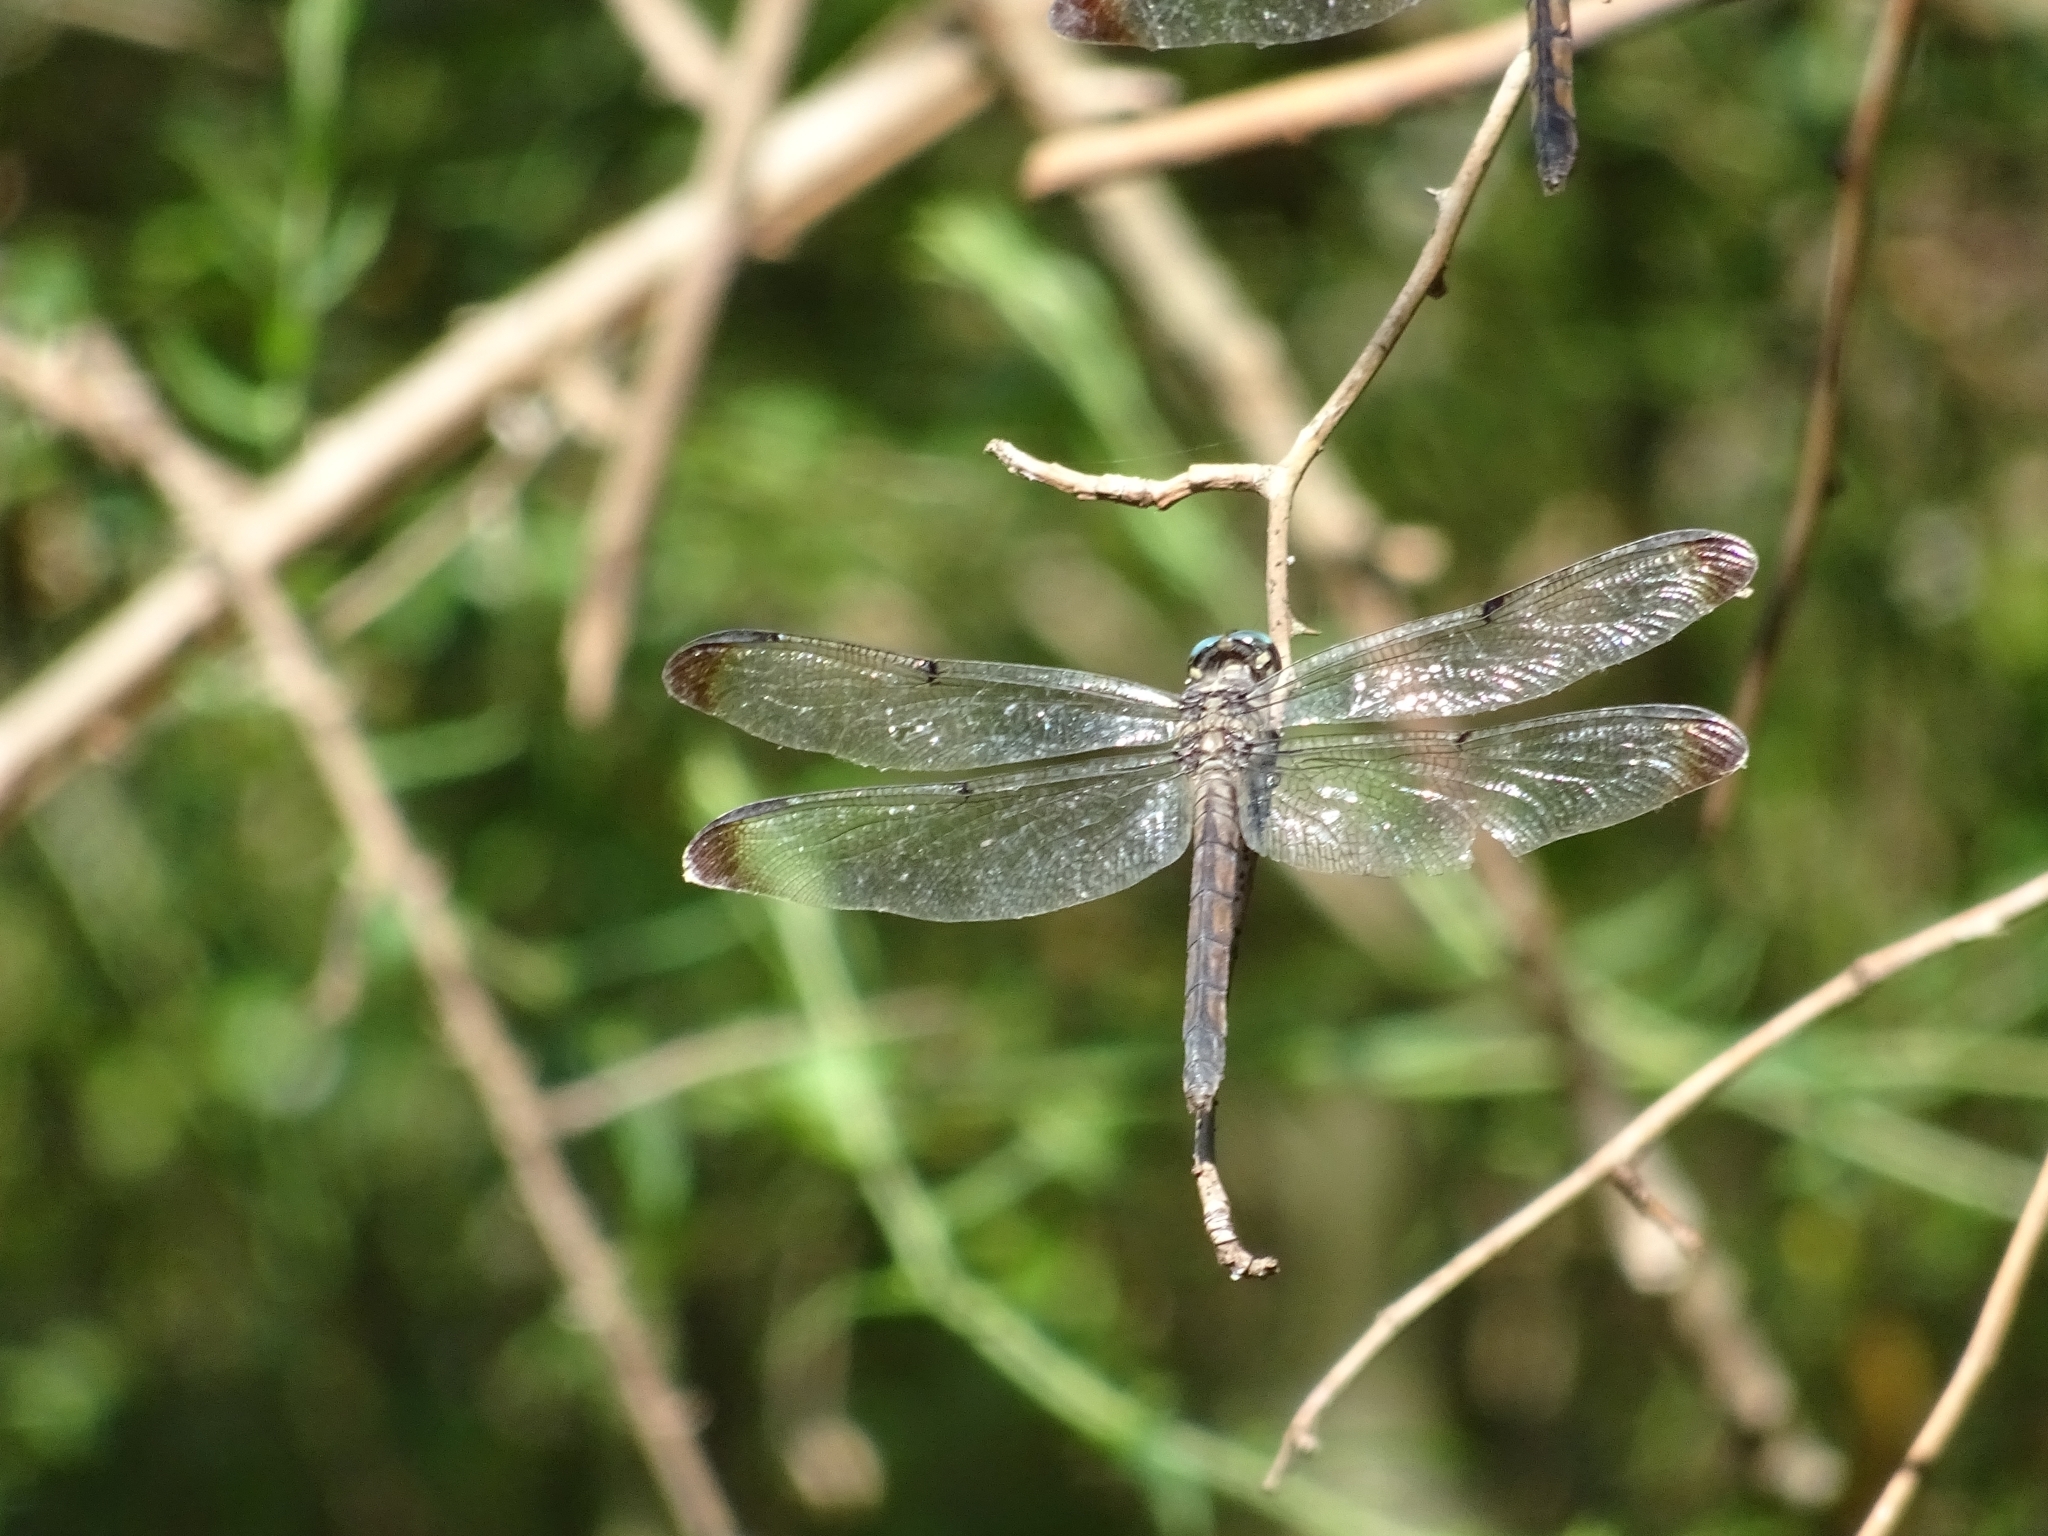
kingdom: Animalia
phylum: Arthropoda
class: Insecta
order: Odonata
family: Libellulidae
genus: Libellula
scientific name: Libellula vibrans
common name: Great blue skimmer
